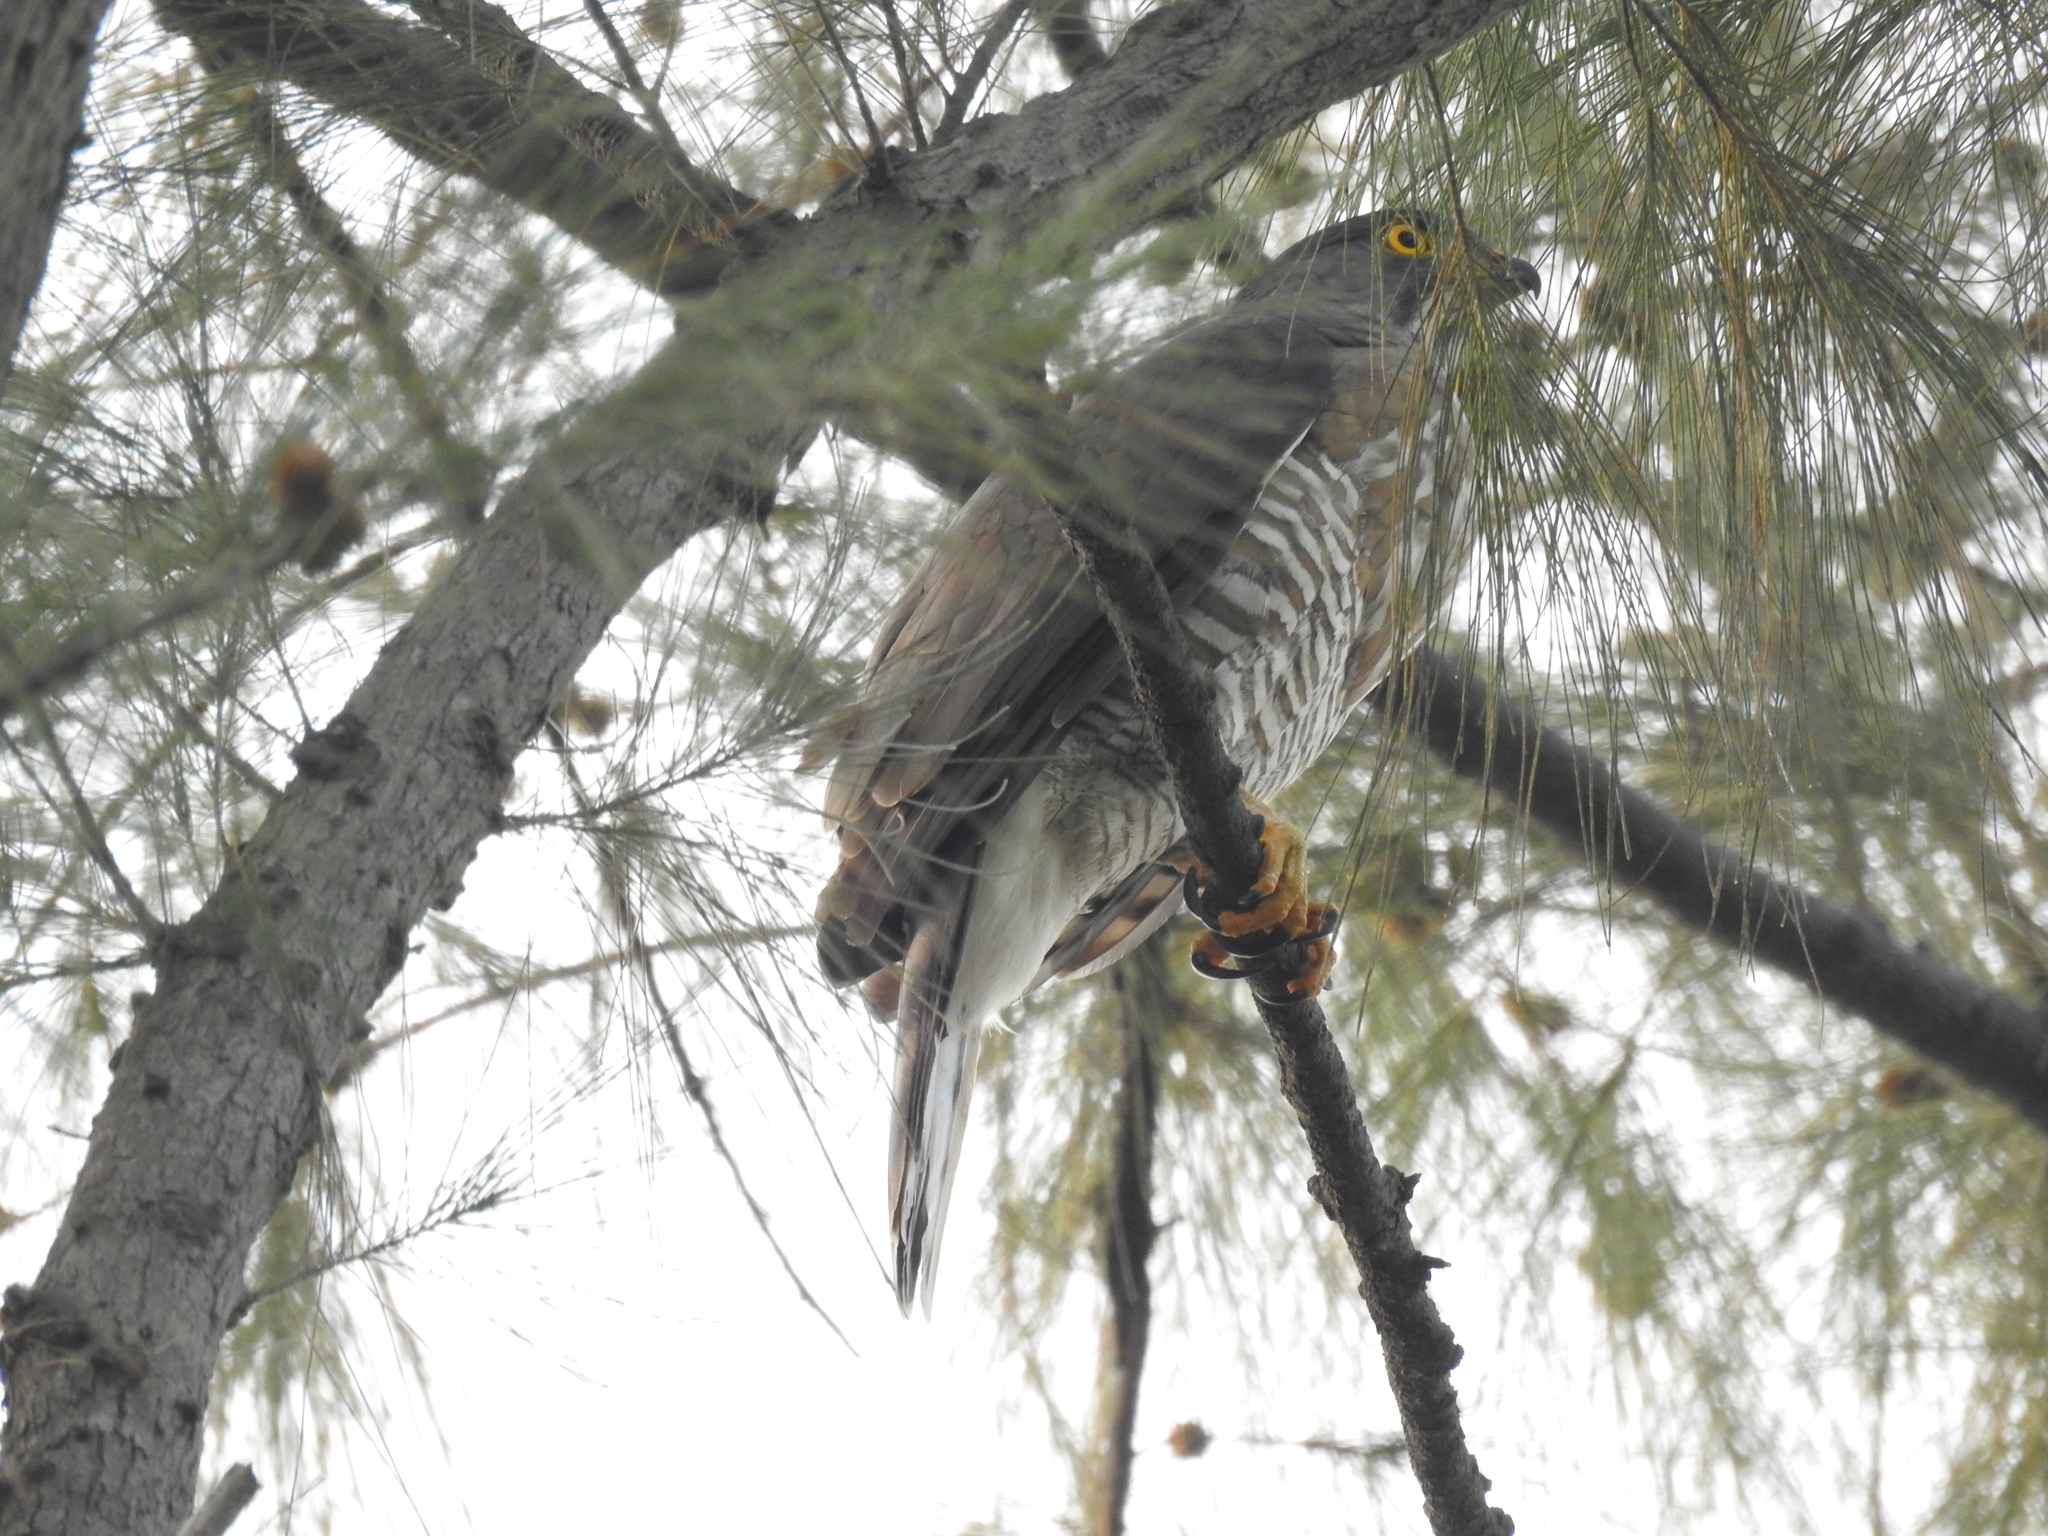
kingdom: Animalia
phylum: Chordata
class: Aves
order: Accipitriformes
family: Accipitridae
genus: Accipiter
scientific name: Accipiter trivirgatus
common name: Crested goshawk
